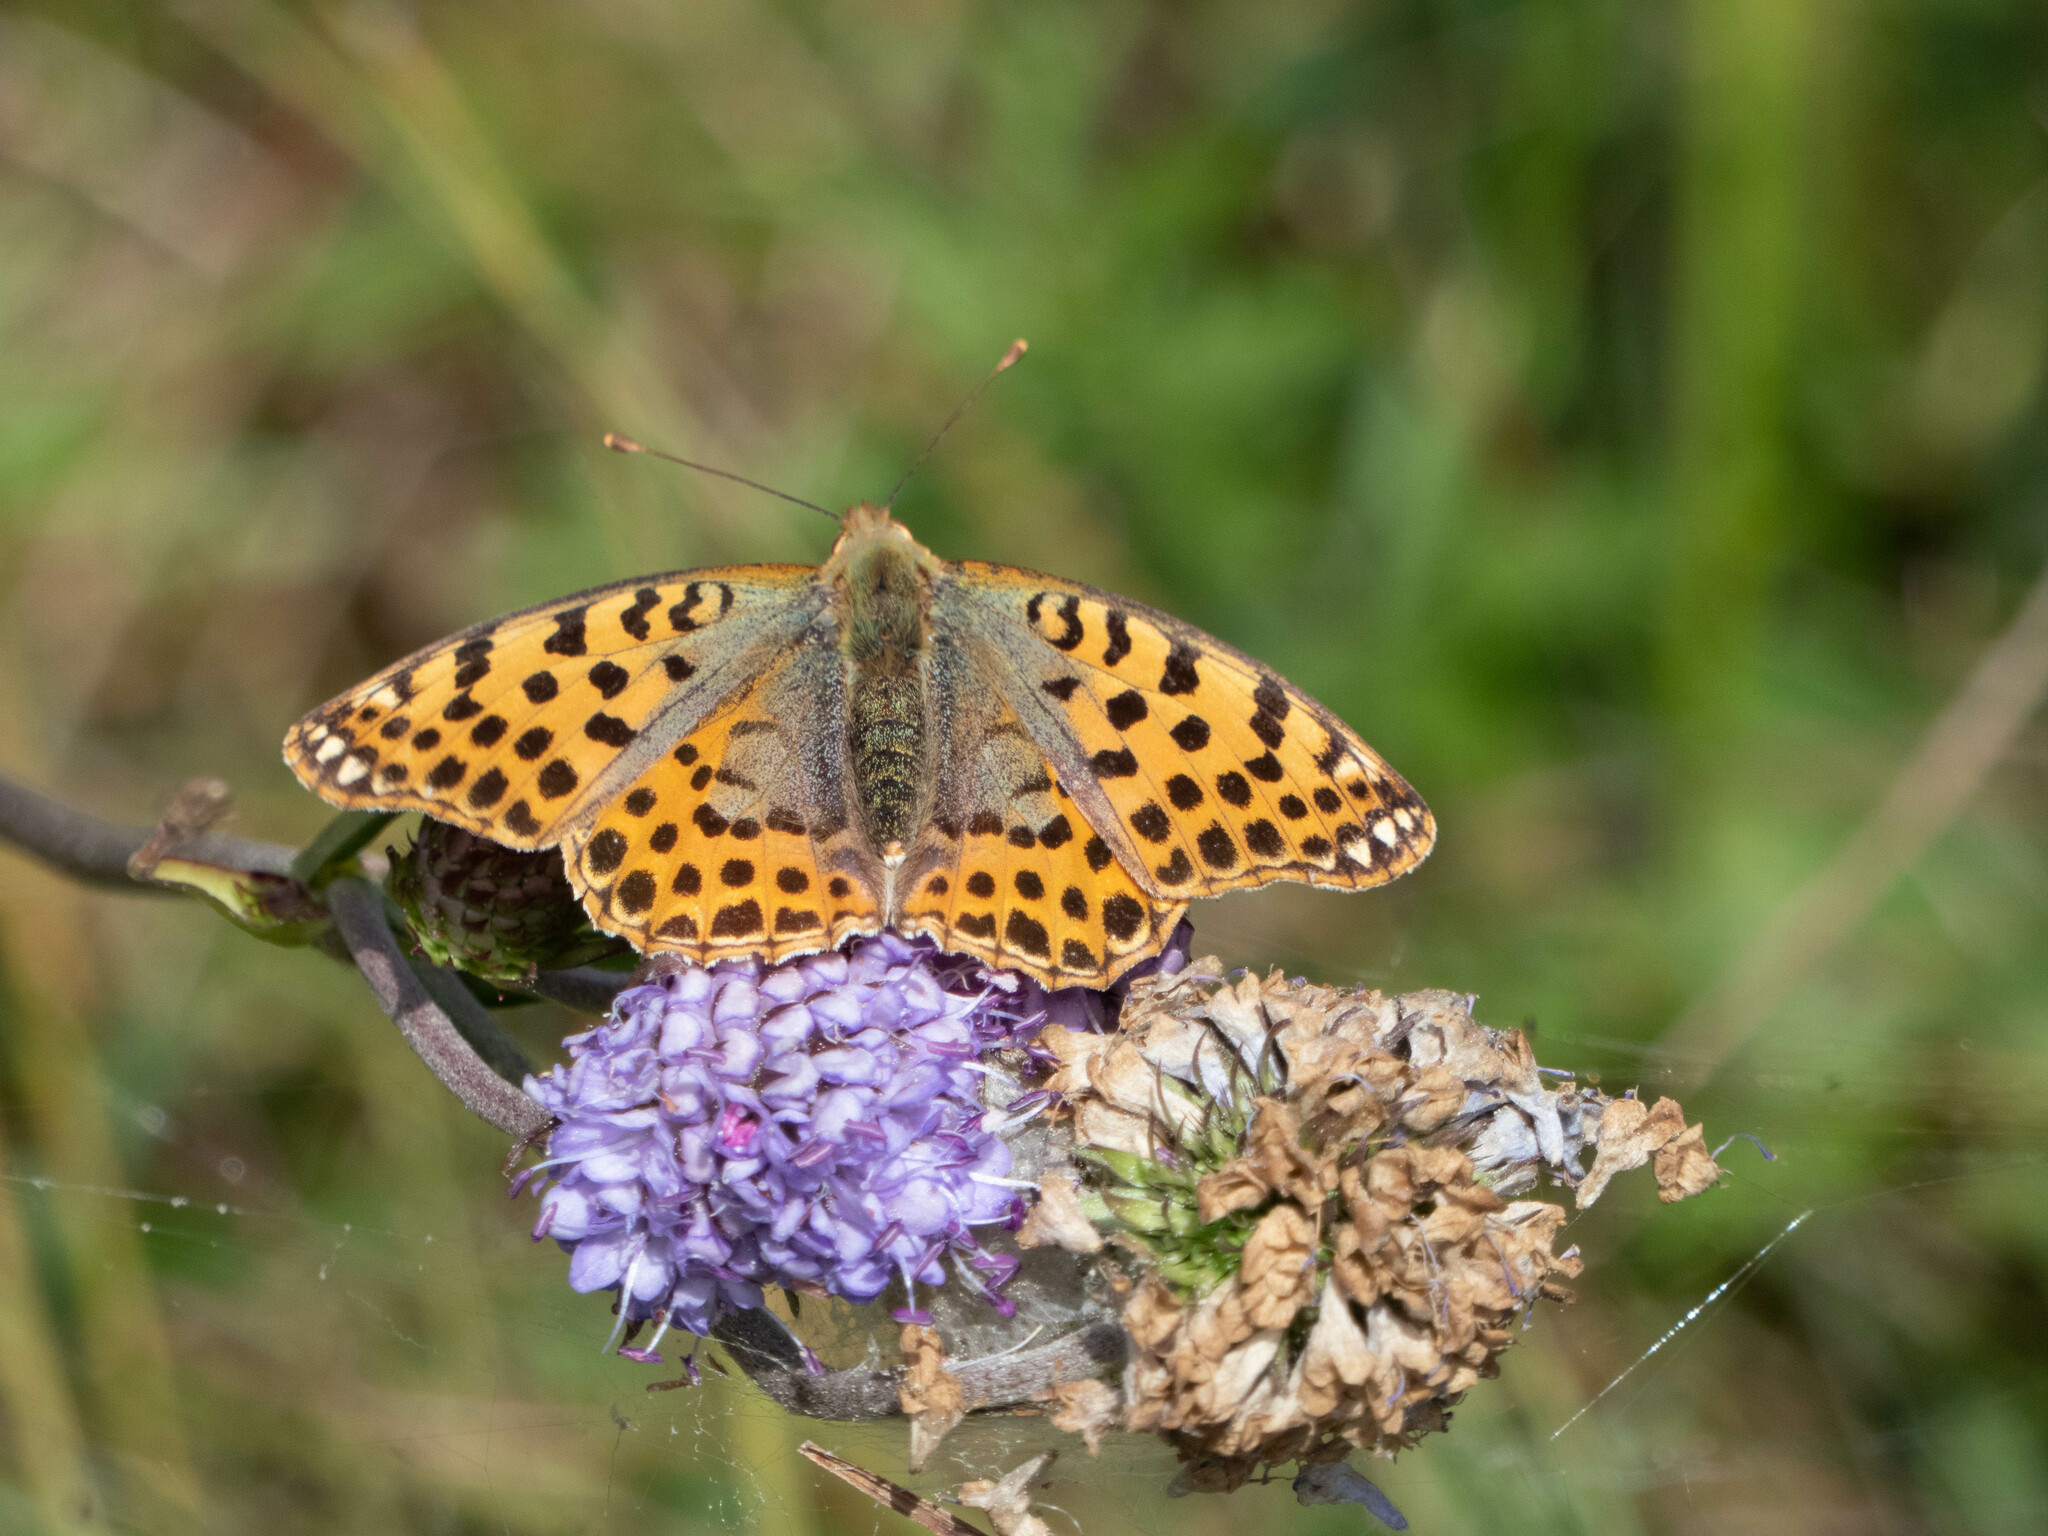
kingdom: Animalia
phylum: Arthropoda
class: Insecta
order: Lepidoptera
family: Nymphalidae
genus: Issoria
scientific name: Issoria lathonia
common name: Queen of spain fritillary
